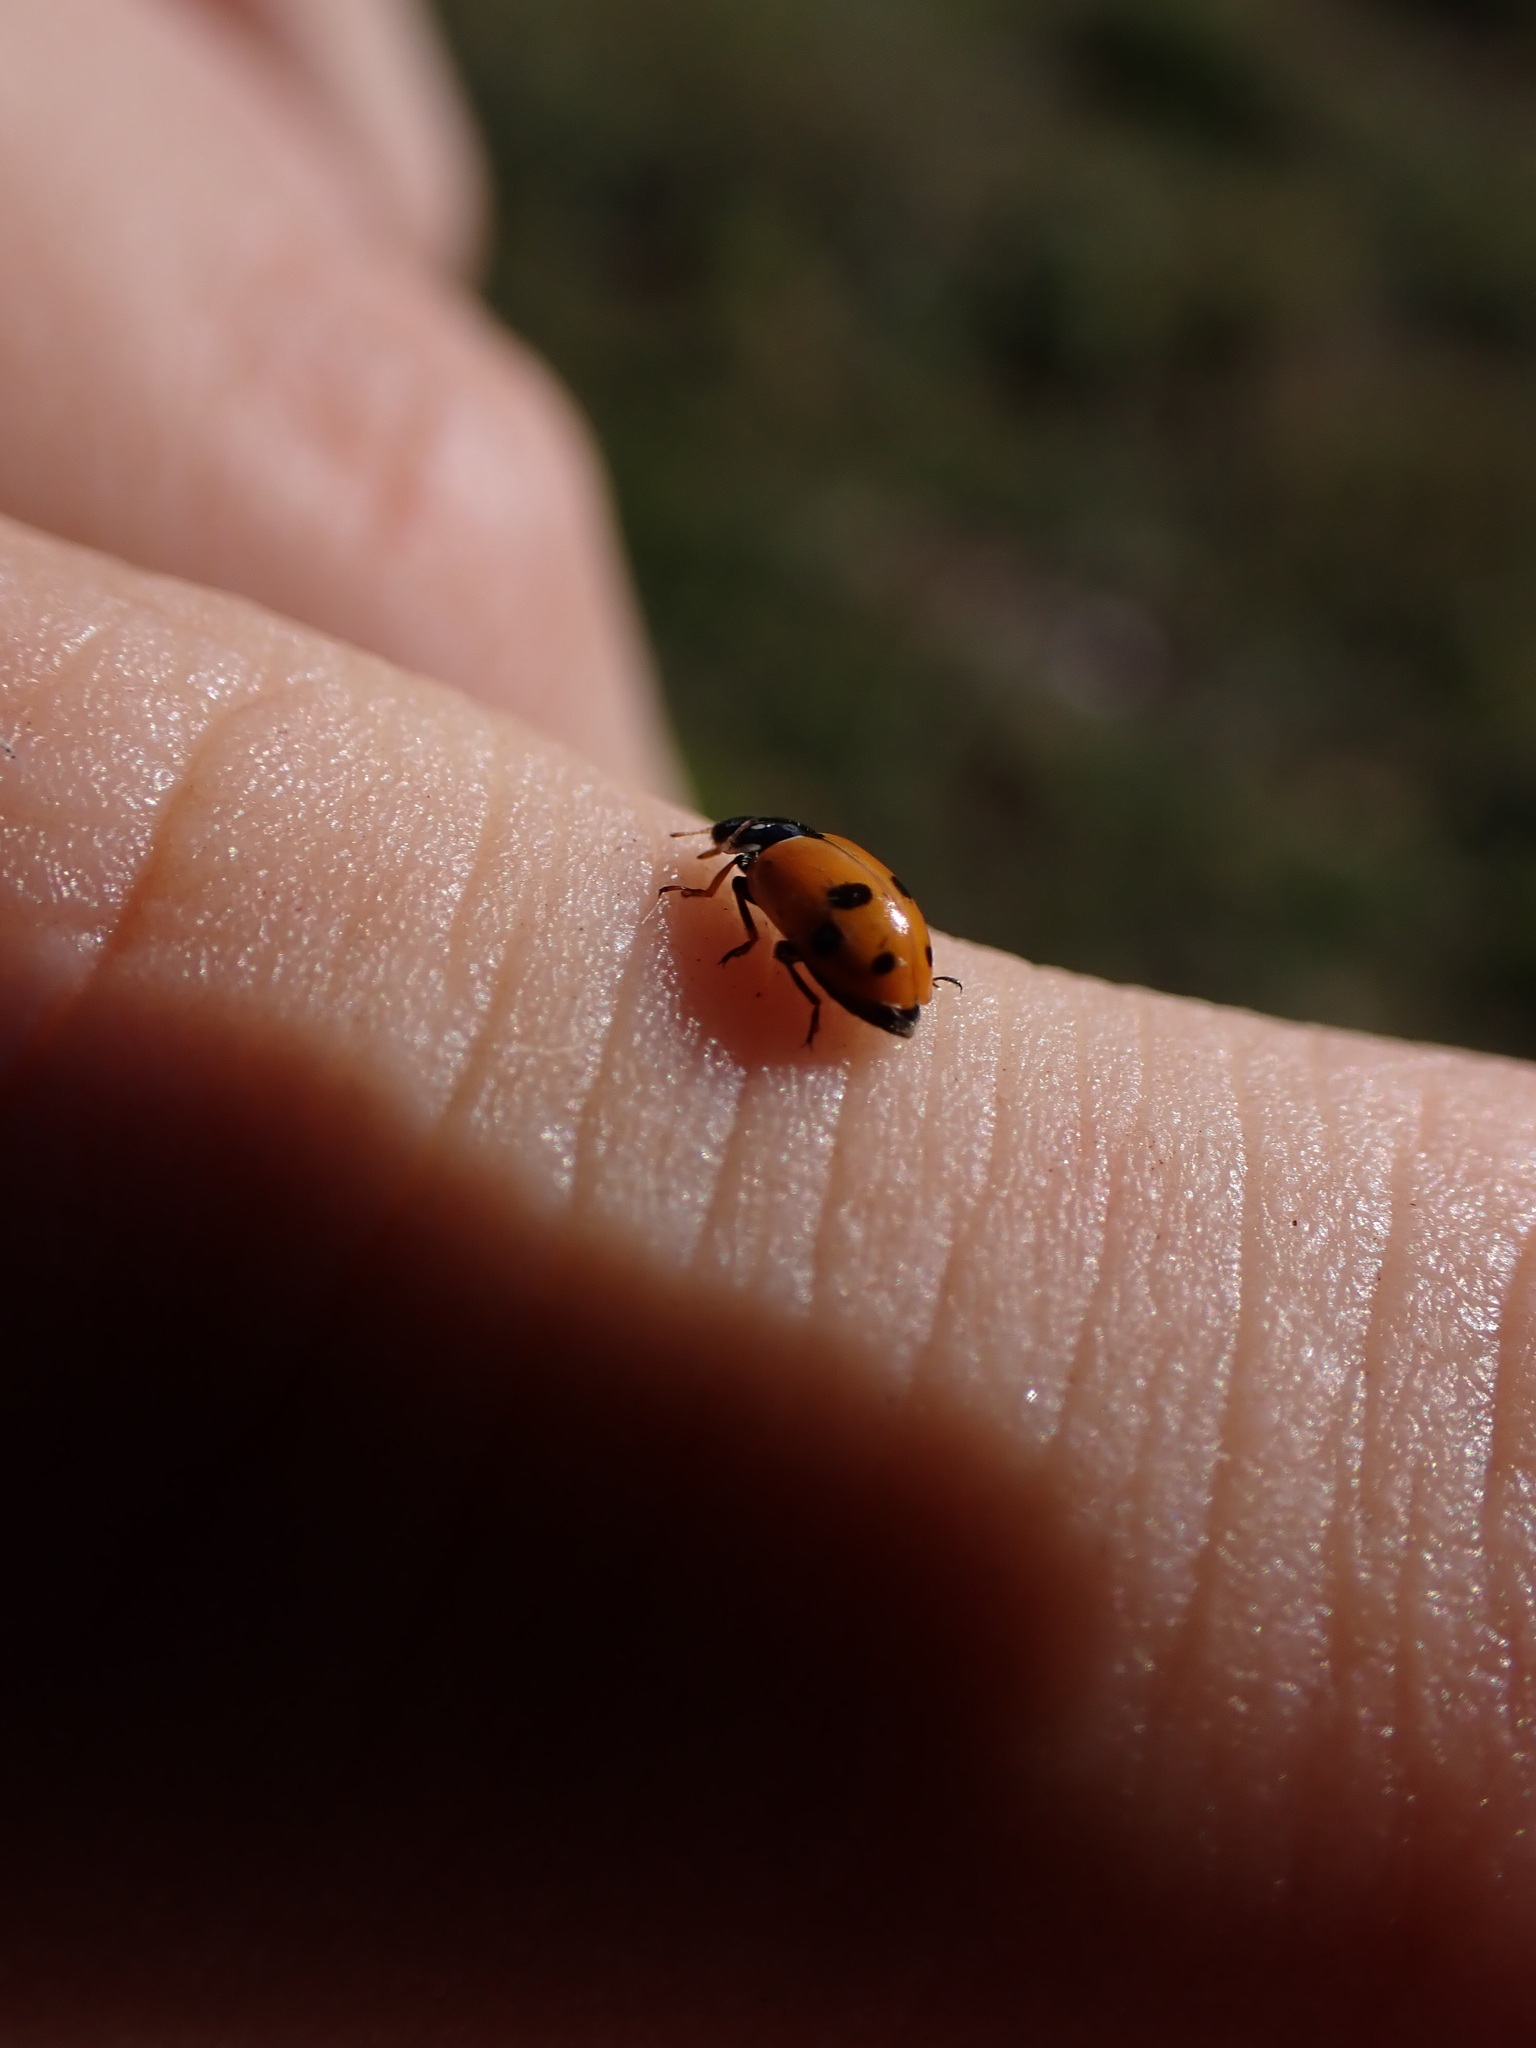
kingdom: Animalia
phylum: Arthropoda
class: Insecta
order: Coleoptera
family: Coccinellidae
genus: Hippodamia
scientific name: Hippodamia variegata
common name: Ladybird beetle
